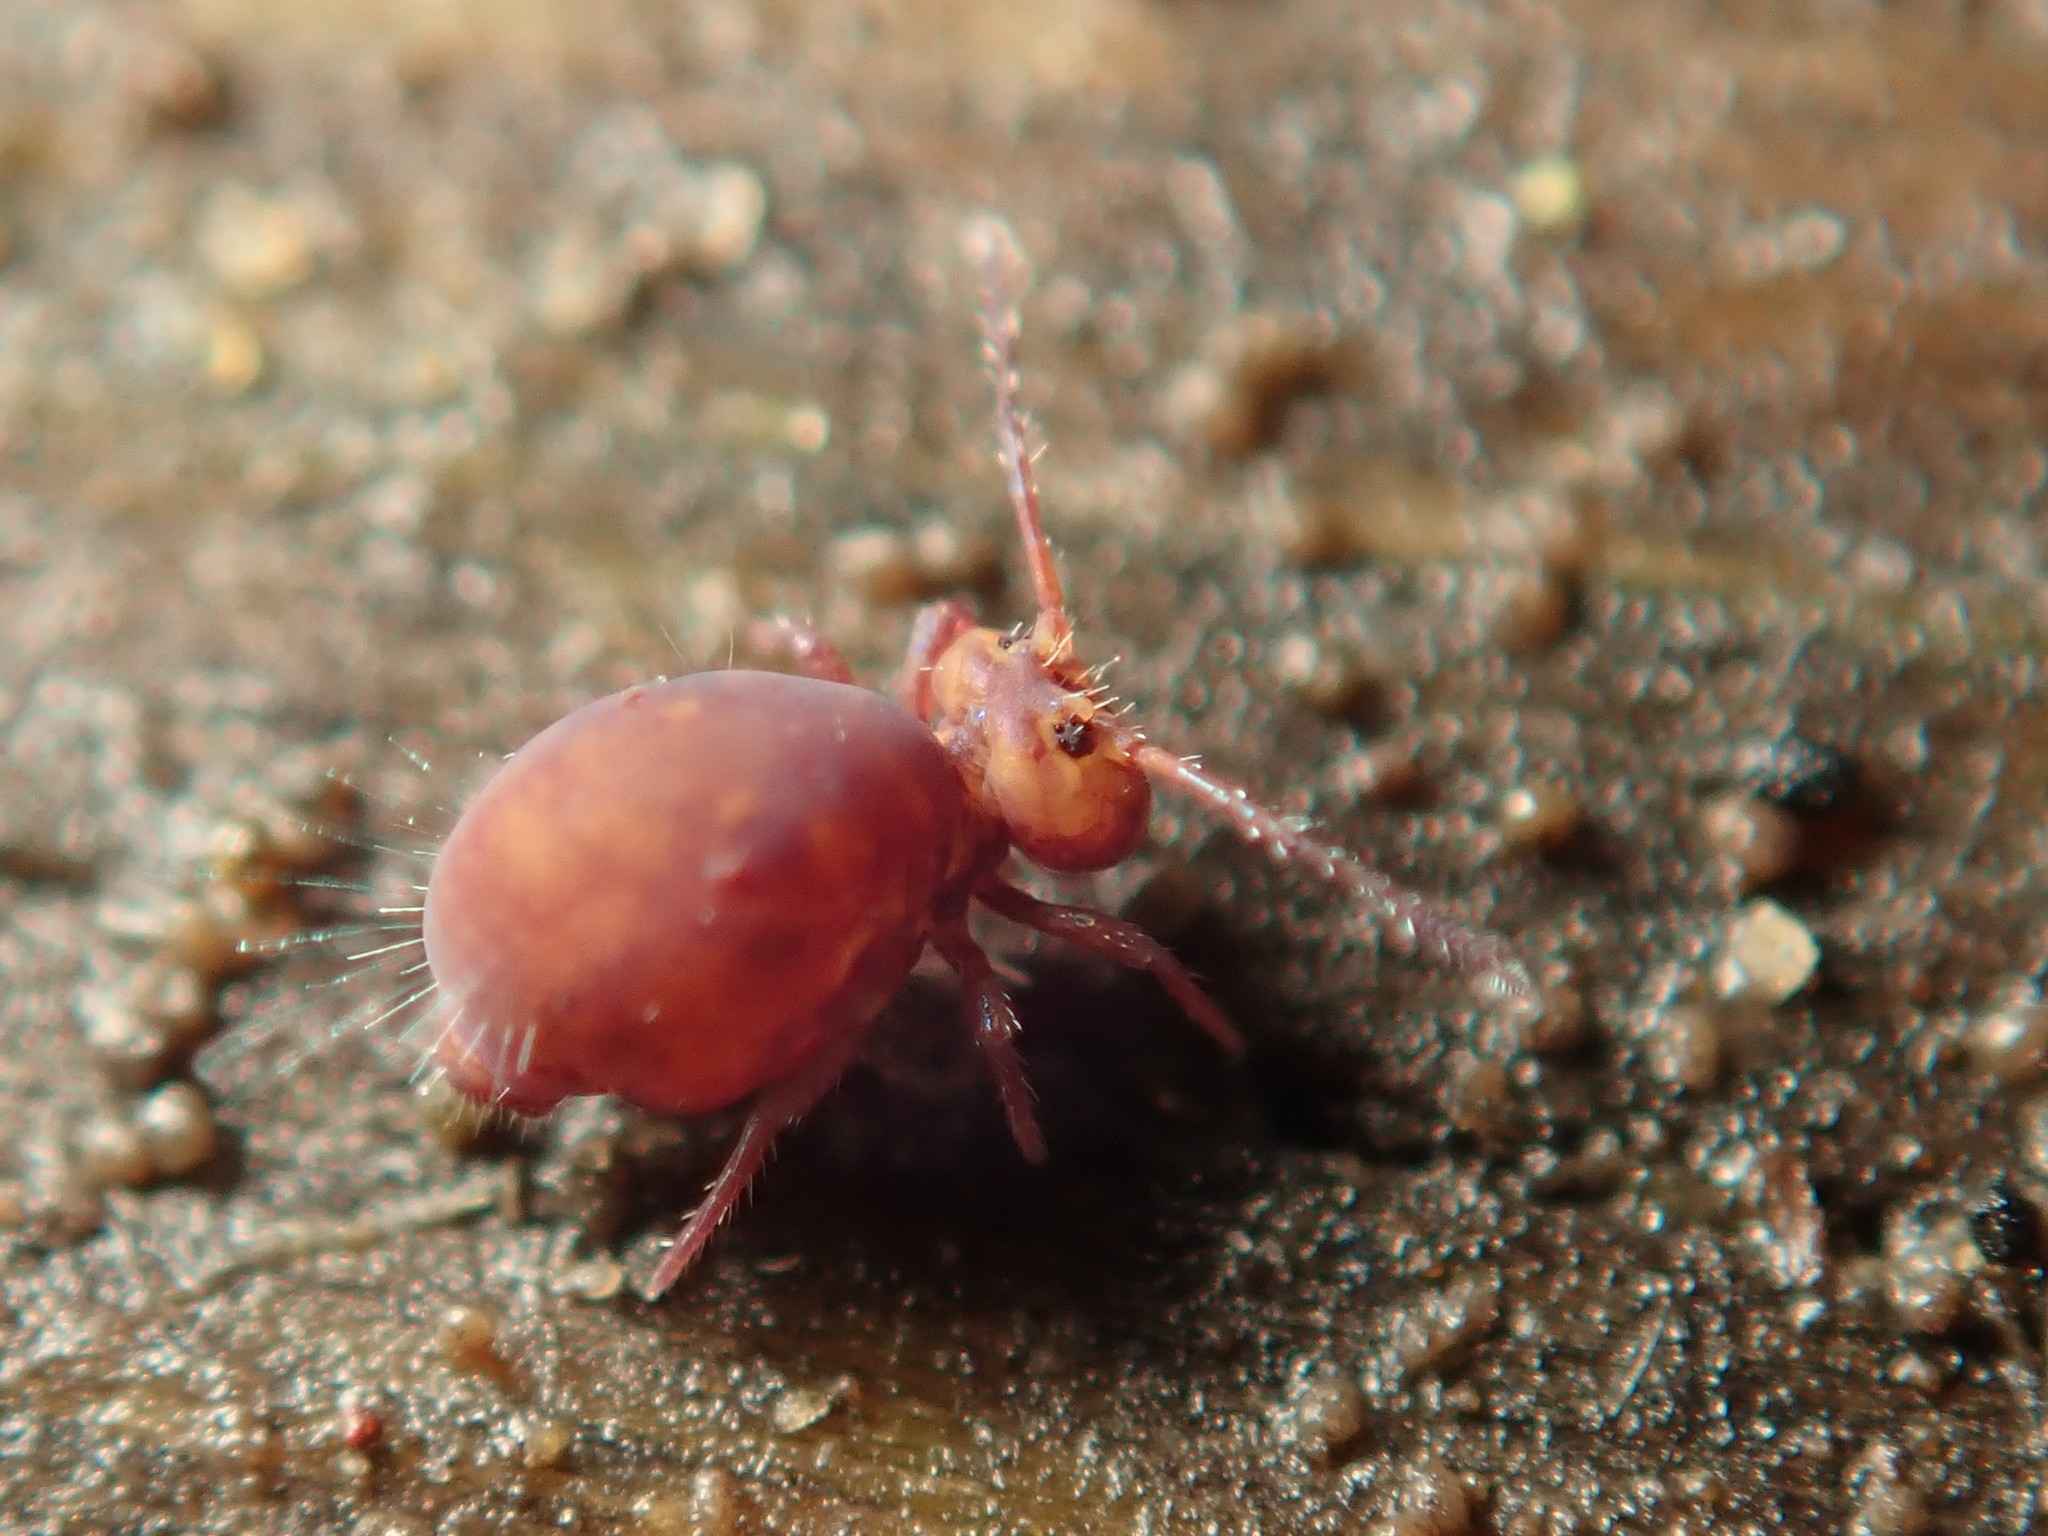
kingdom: Animalia
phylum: Arthropoda
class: Collembola
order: Symphypleona
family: Dicyrtomidae
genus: Dicyrtoma
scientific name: Dicyrtoma fusca
